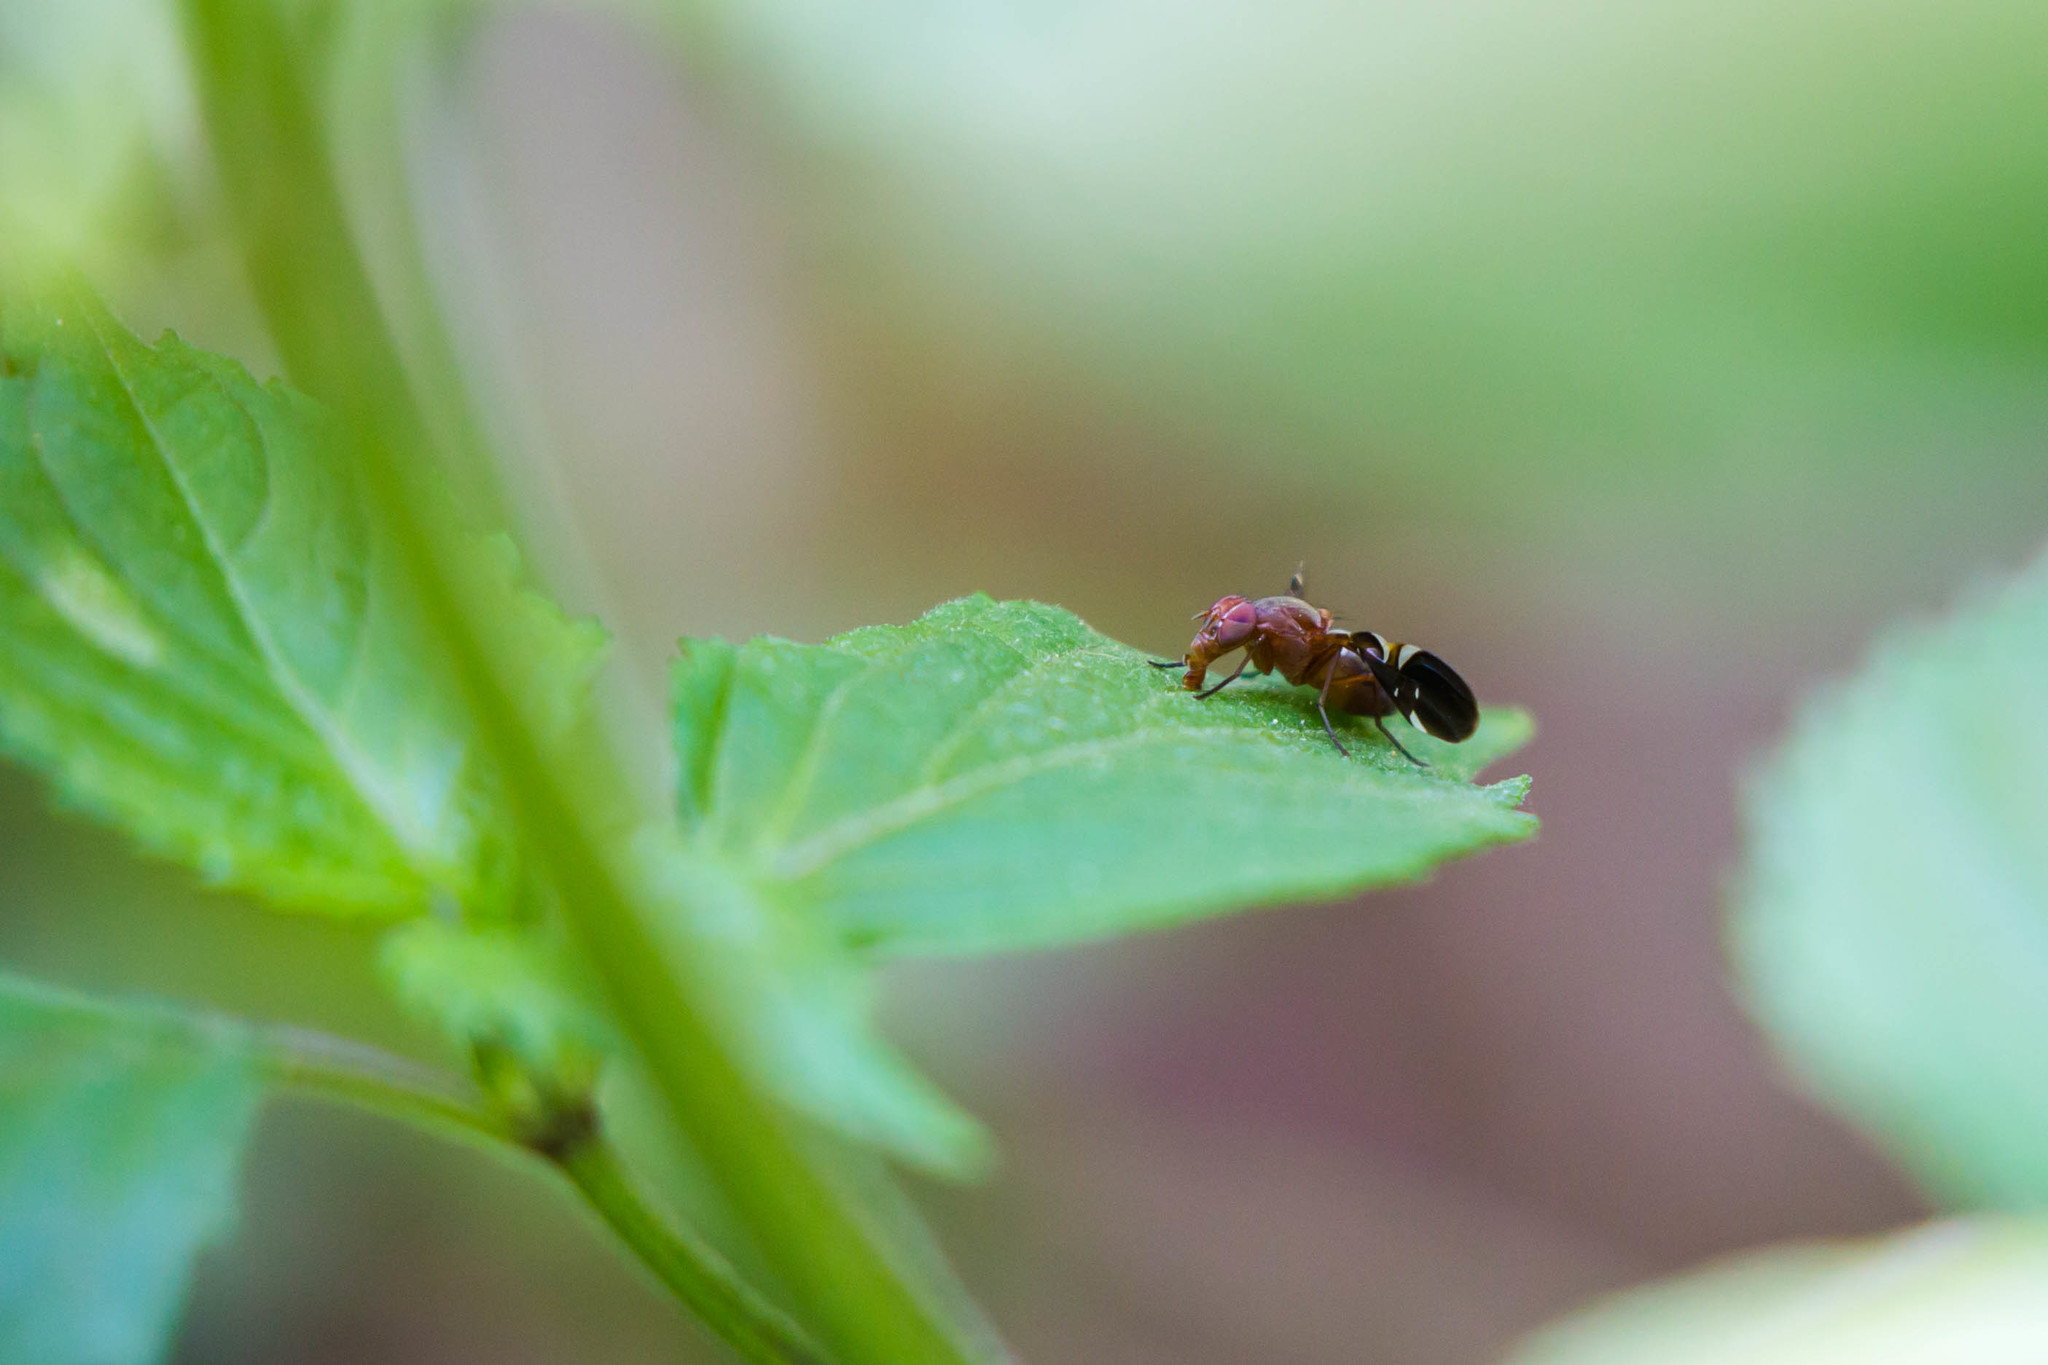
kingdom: Animalia
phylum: Arthropoda
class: Insecta
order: Diptera
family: Ulidiidae
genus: Delphinia
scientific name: Delphinia picta
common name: Common picture-winged fly
